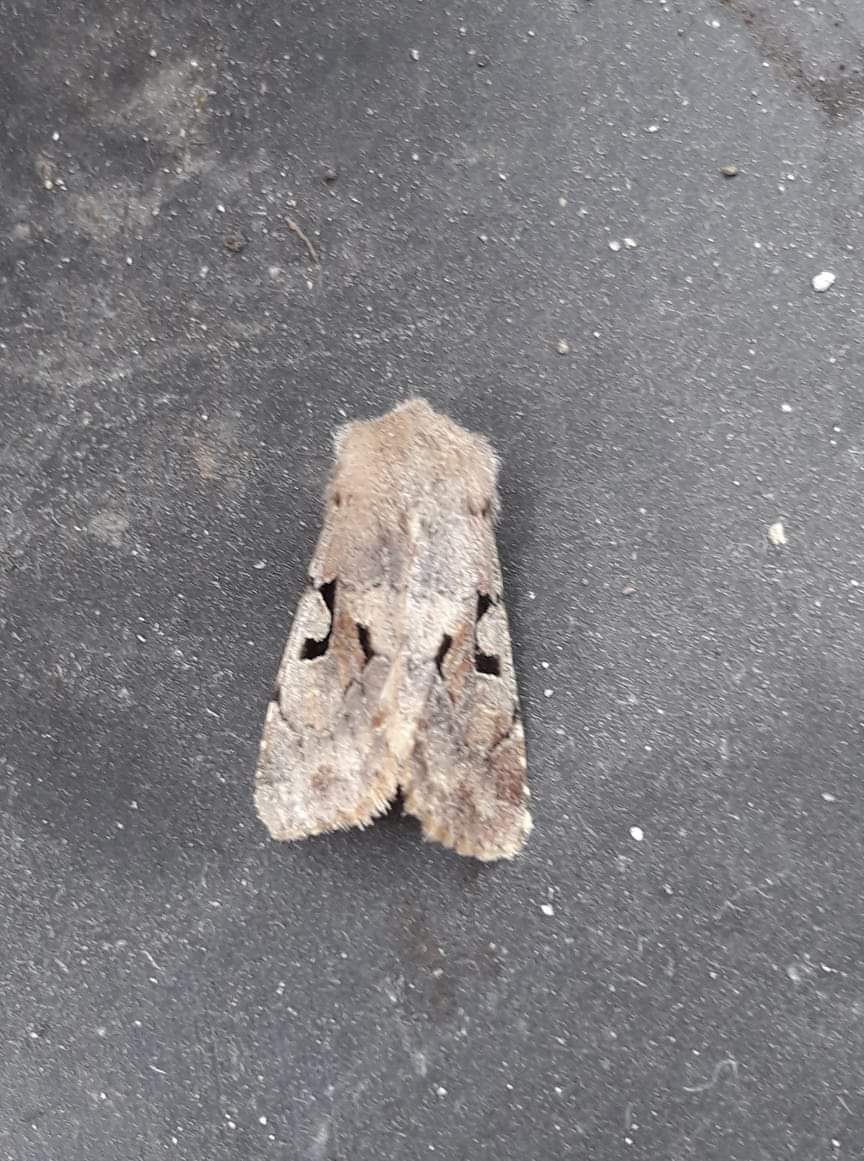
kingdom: Animalia
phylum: Arthropoda
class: Insecta
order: Lepidoptera
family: Noctuidae
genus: Orthosia
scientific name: Orthosia gothica
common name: Hebrew character
